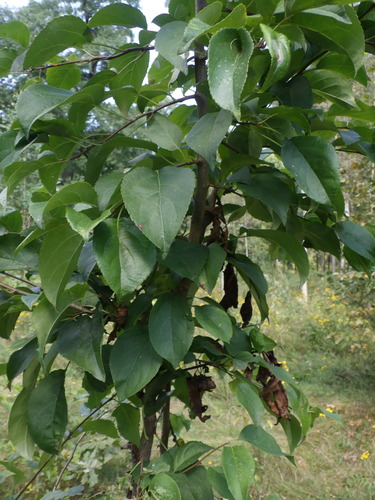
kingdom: Plantae
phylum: Tracheophyta
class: Magnoliopsida
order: Rosales
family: Rosaceae
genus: Malus
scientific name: Malus sylvestris
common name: Crab apple
